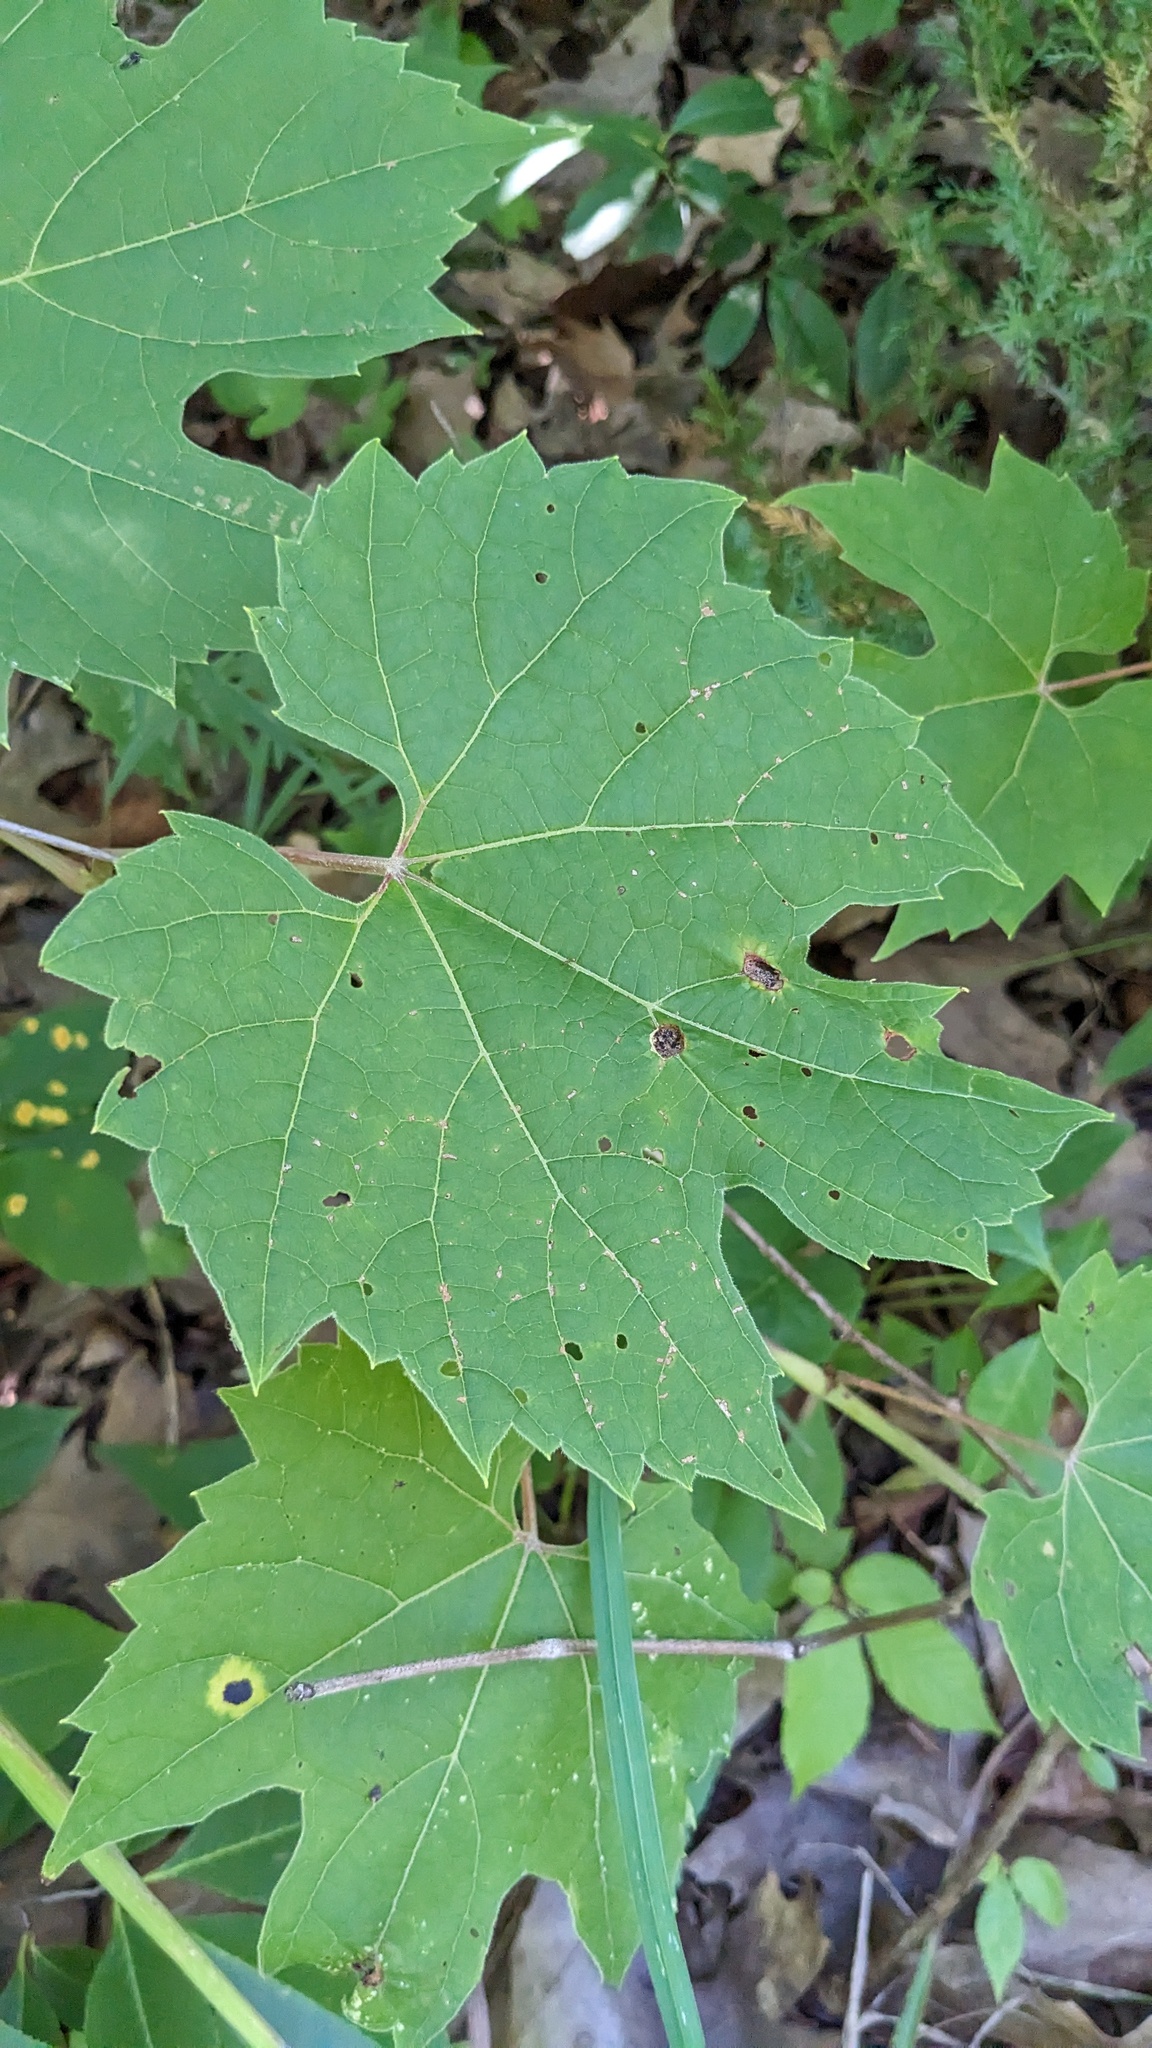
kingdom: Plantae
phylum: Tracheophyta
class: Magnoliopsida
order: Vitales
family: Vitaceae
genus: Vitis
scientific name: Vitis riparia
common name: Frost grape
